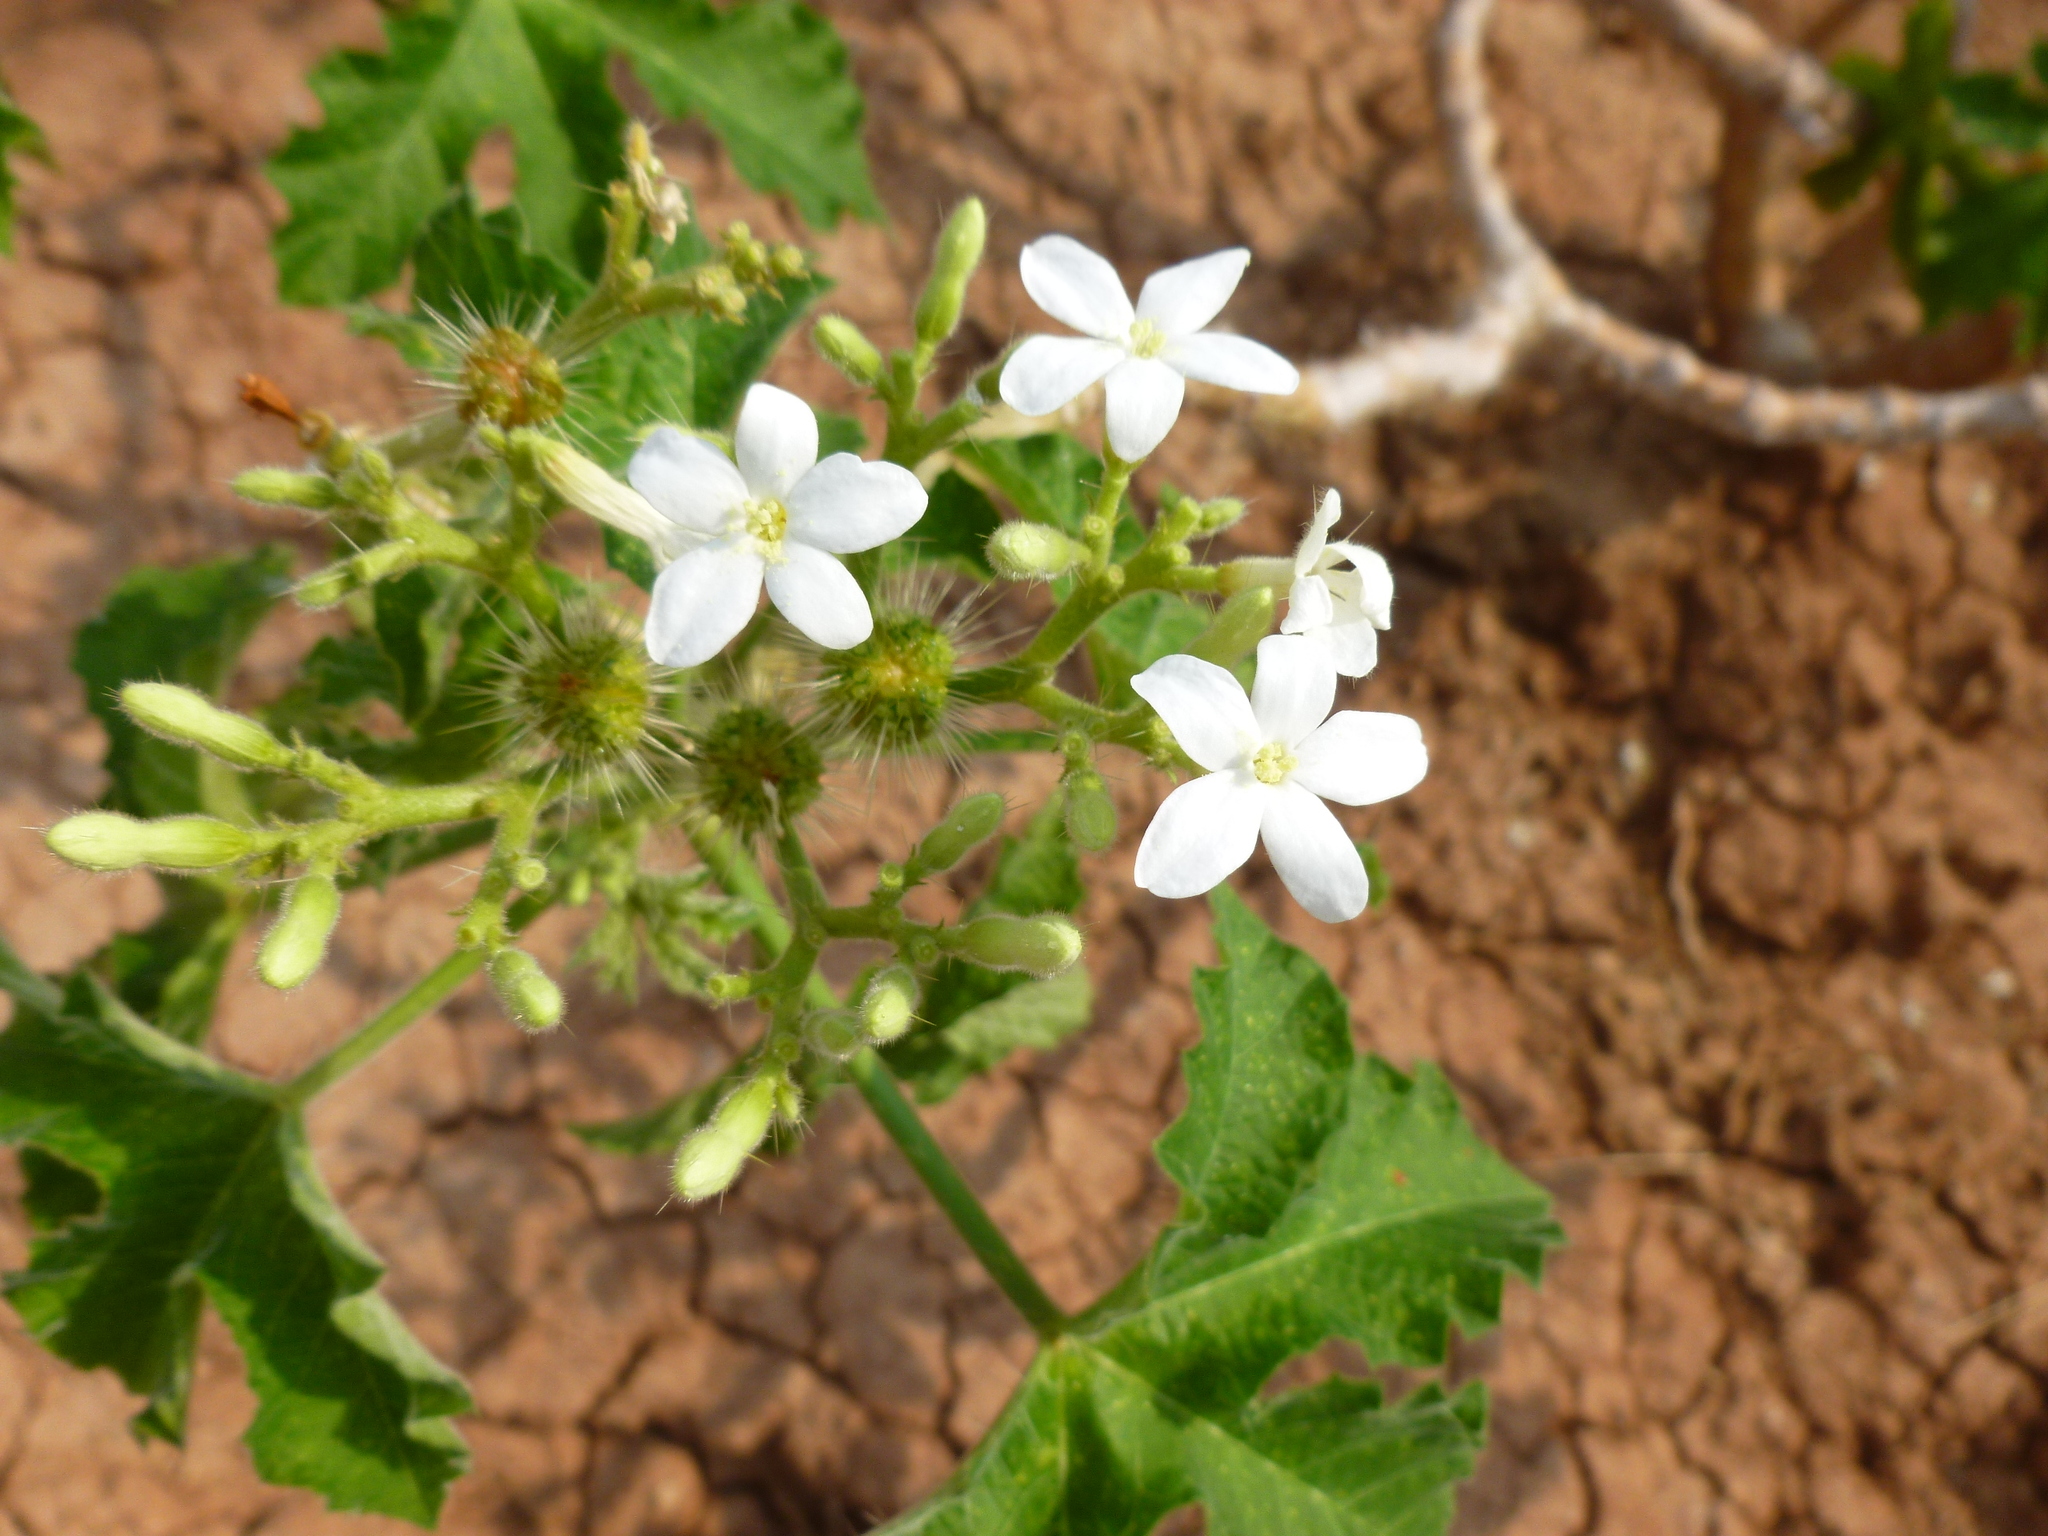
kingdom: Plantae
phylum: Tracheophyta
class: Magnoliopsida
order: Malpighiales
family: Euphorbiaceae
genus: Cnidoscolus
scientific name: Cnidoscolus urens
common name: Bull-nettle
